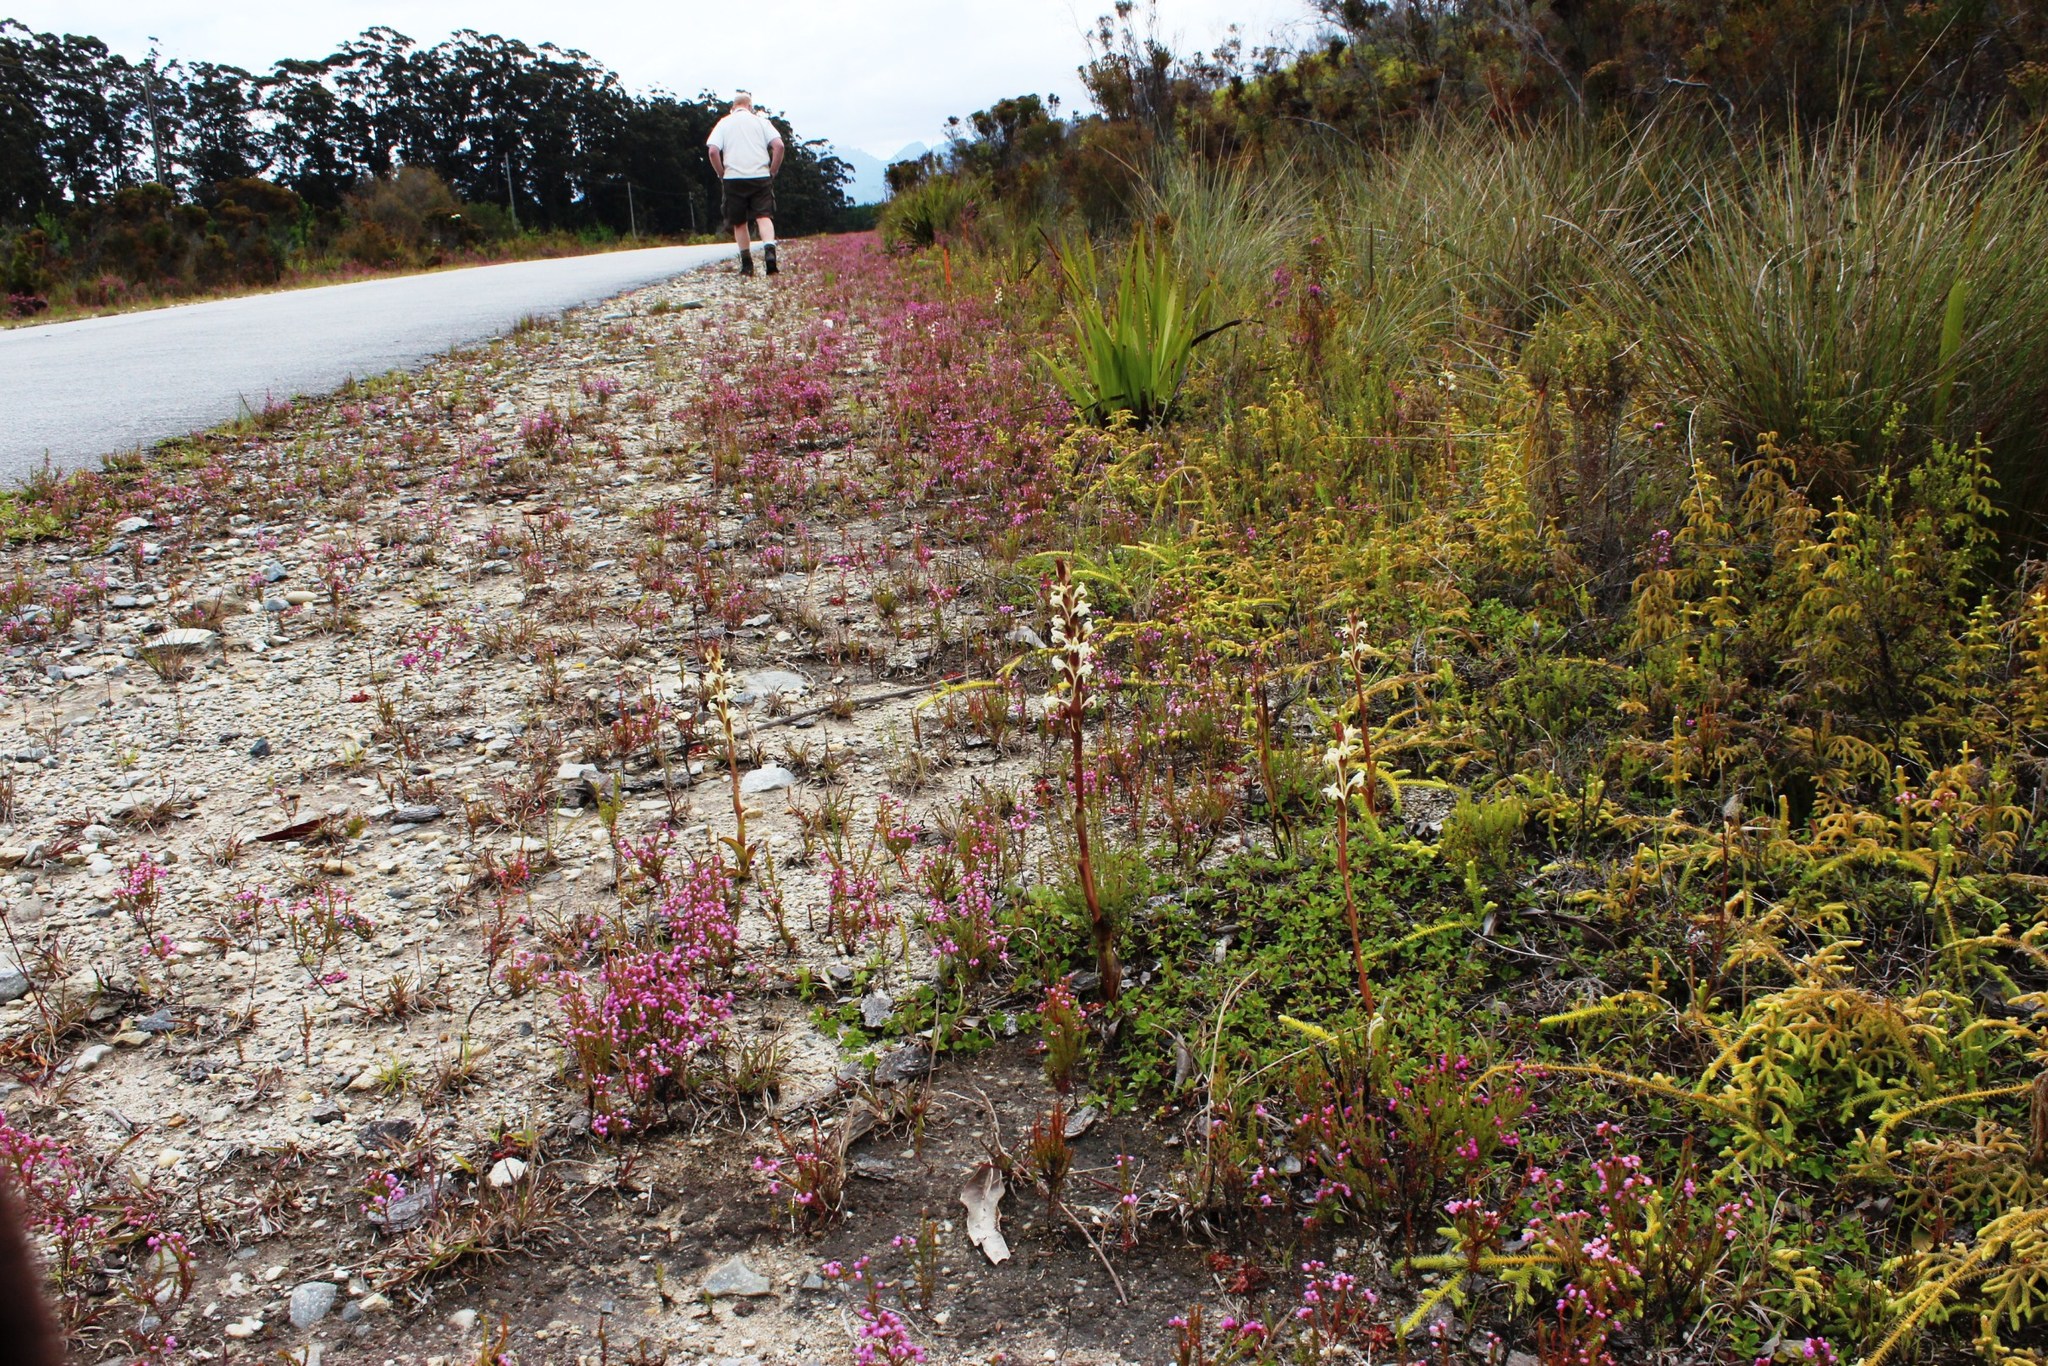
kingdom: Plantae
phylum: Tracheophyta
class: Liliopsida
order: Asparagales
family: Orchidaceae
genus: Satyrium
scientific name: Satyrium stenopetalum
